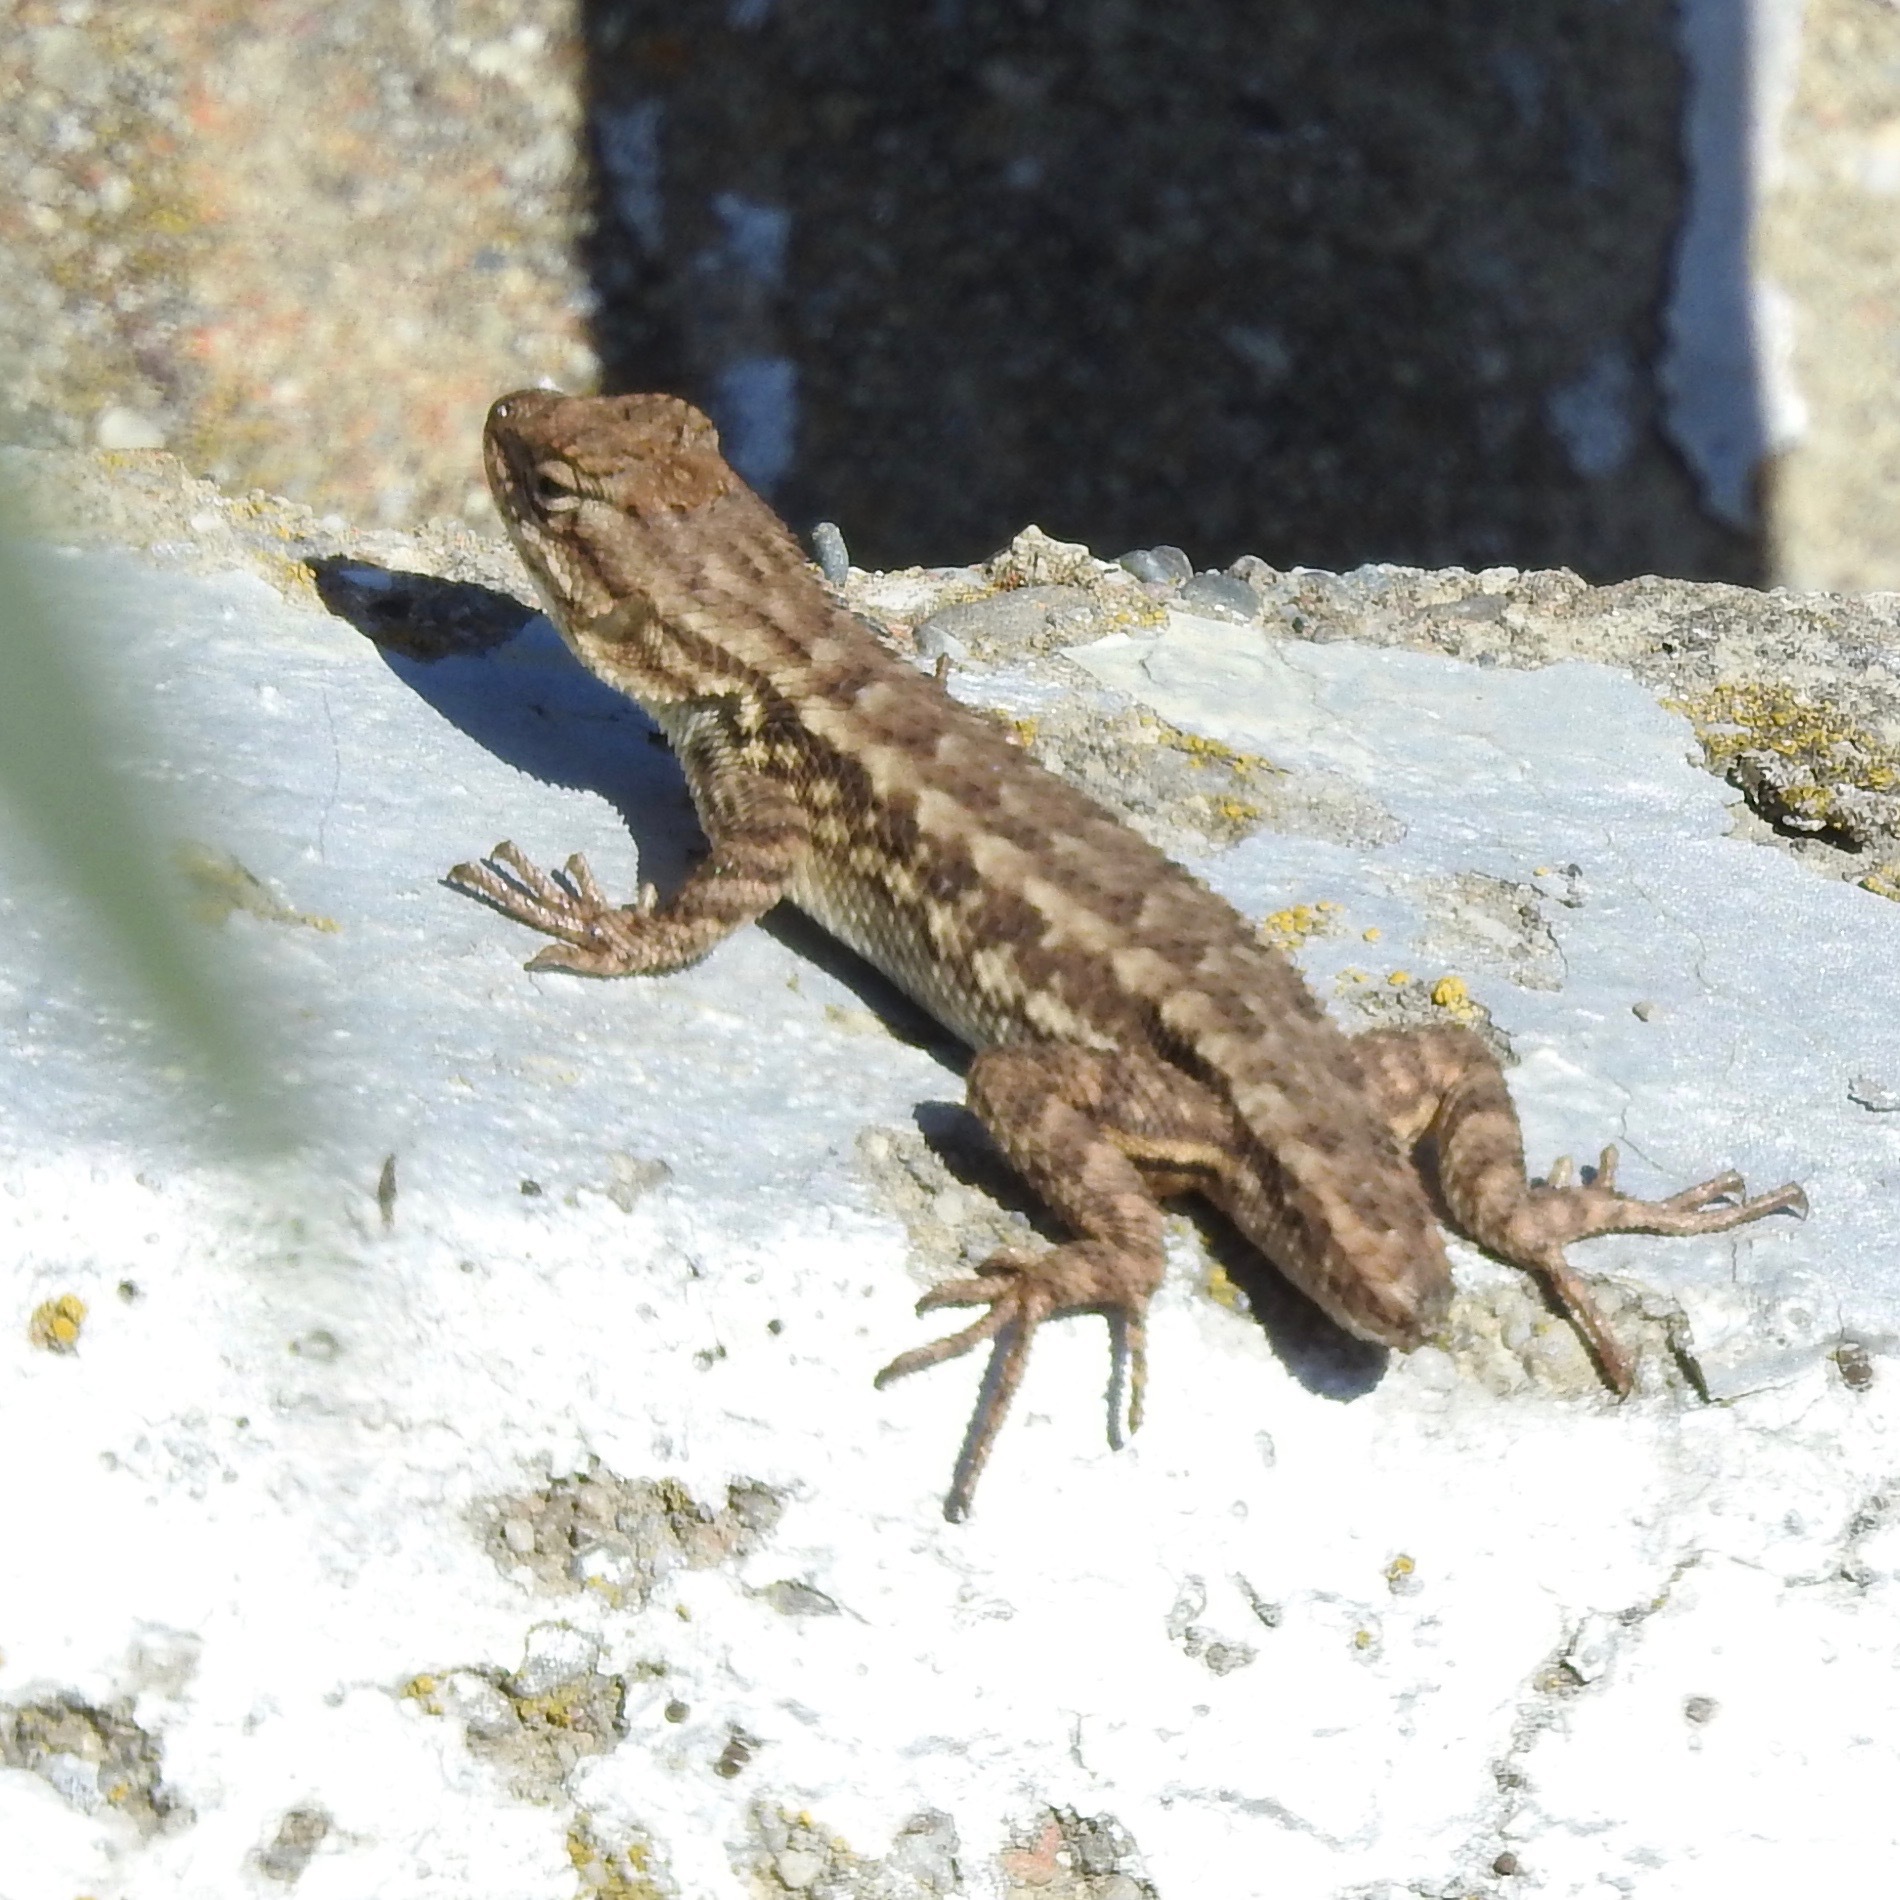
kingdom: Animalia
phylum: Chordata
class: Squamata
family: Phrynosomatidae
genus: Sceloporus
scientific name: Sceloporus occidentalis
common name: Western fence lizard
